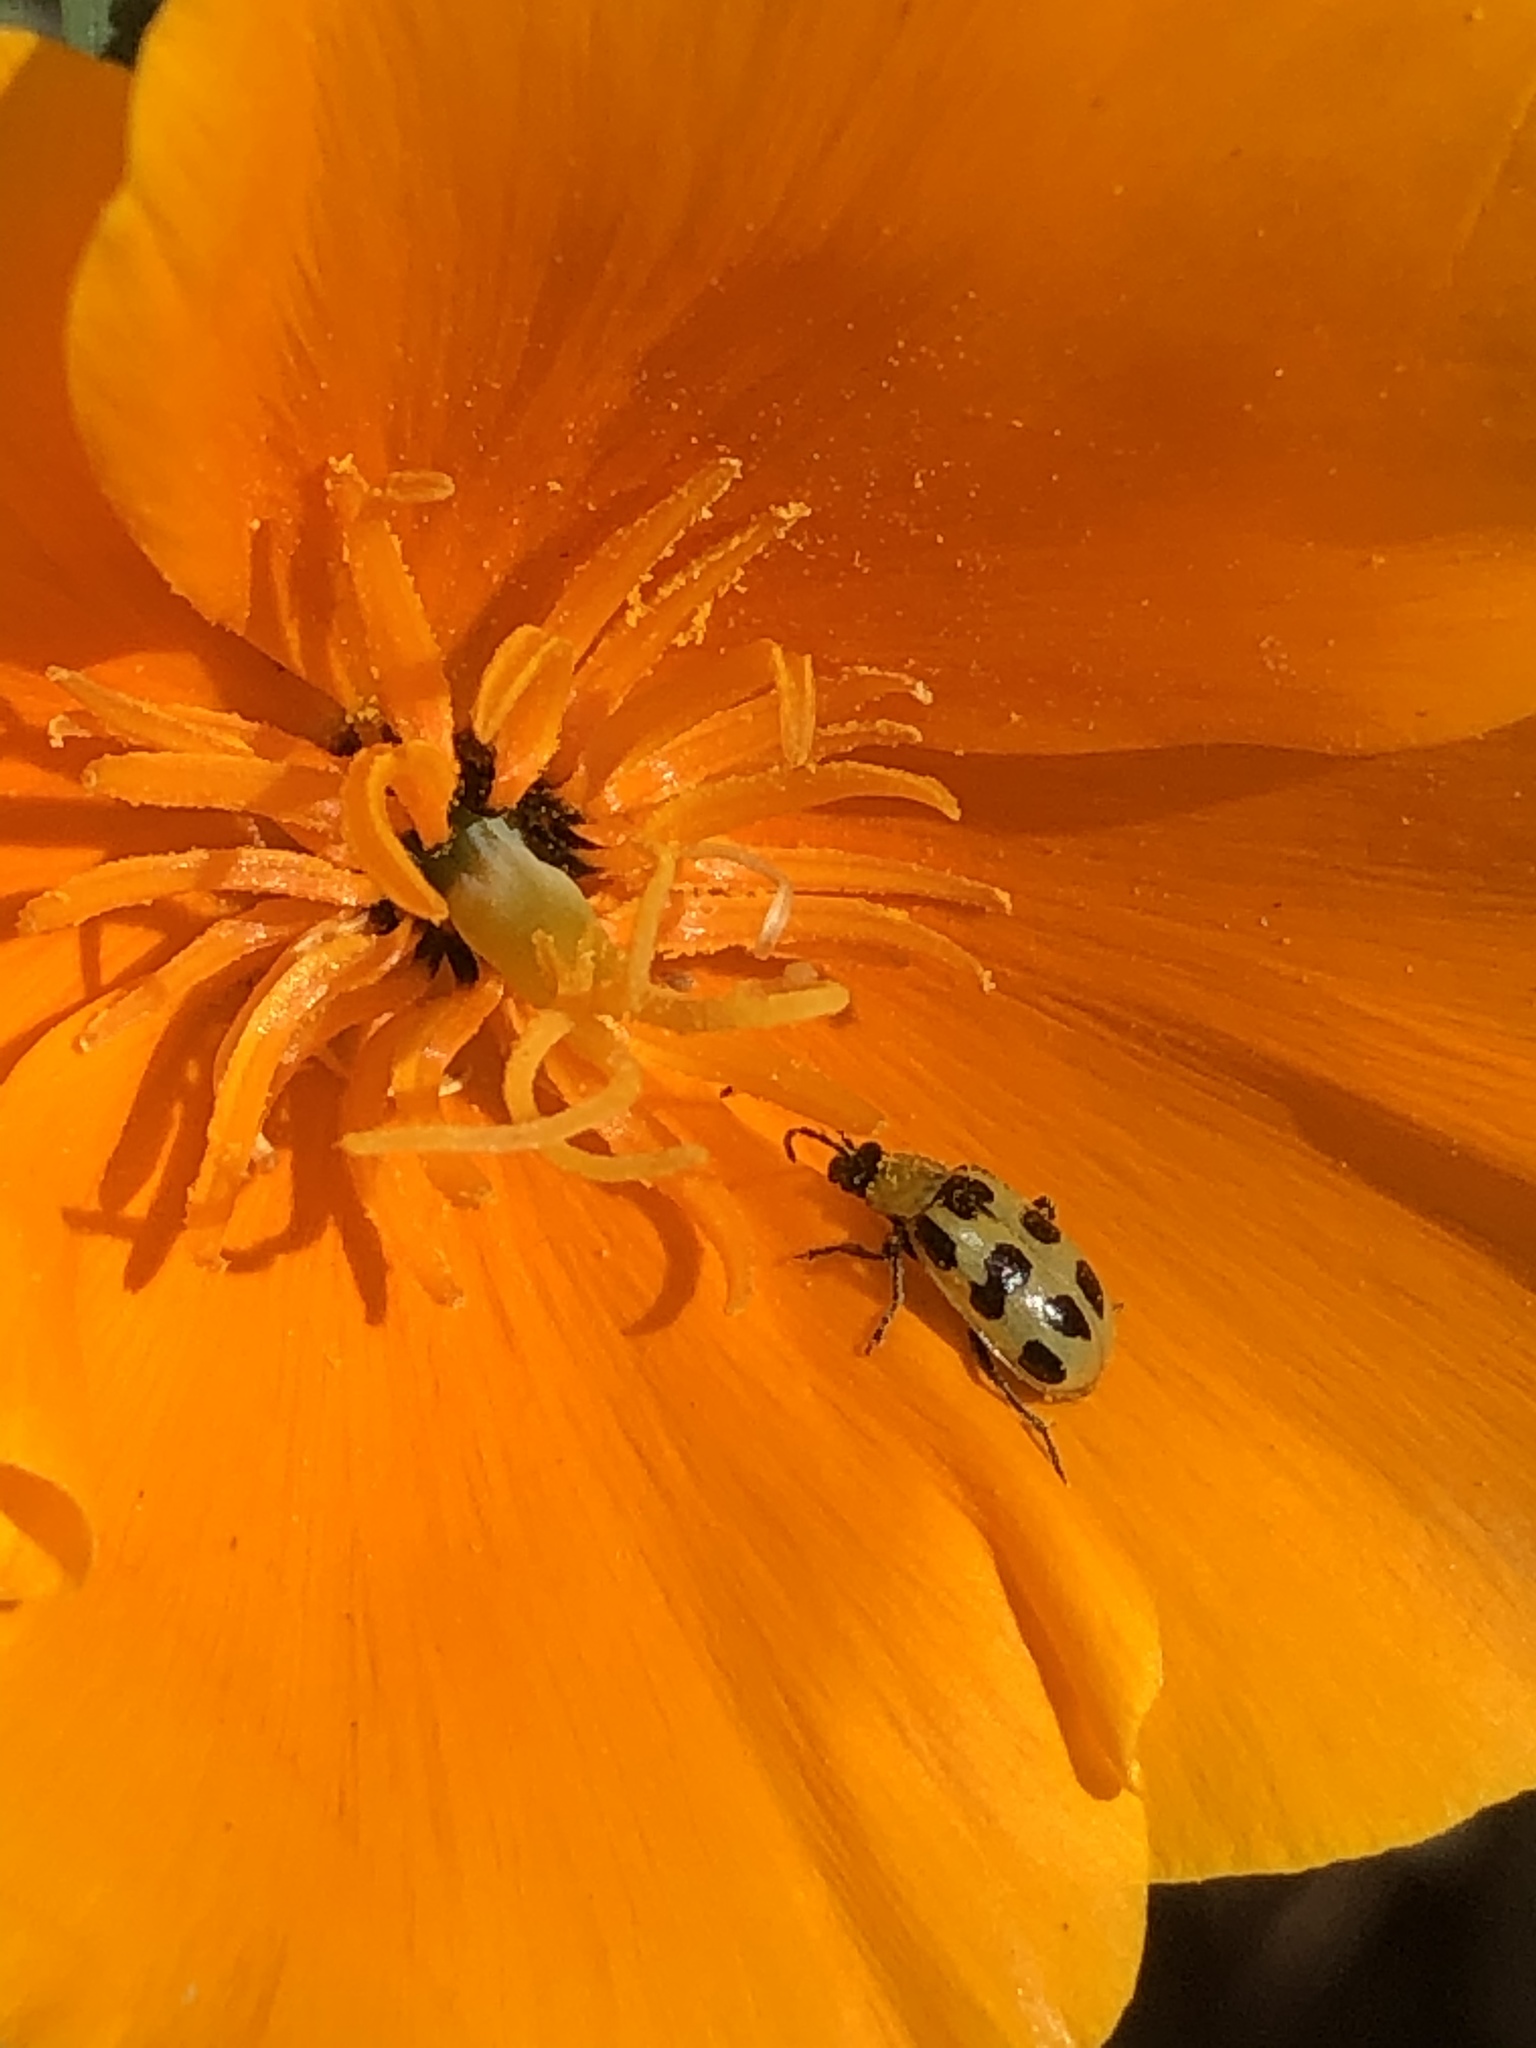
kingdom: Animalia
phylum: Arthropoda
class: Insecta
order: Coleoptera
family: Chrysomelidae
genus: Diabrotica
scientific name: Diabrotica undecimpunctata
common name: Spotted cucumber beetle
